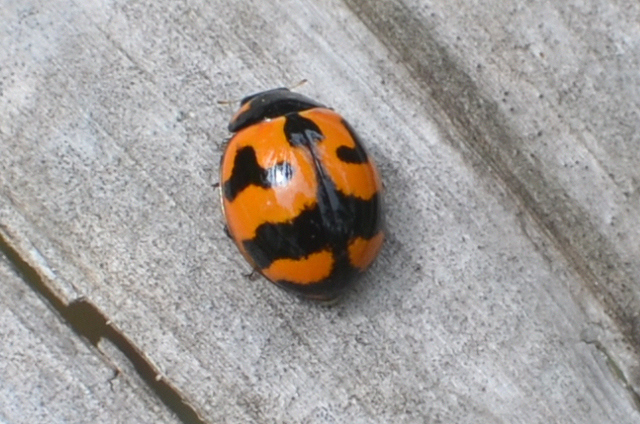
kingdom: Animalia
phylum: Arthropoda
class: Insecta
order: Coleoptera
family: Coccinellidae
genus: Coccinella
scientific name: Coccinella transversalis
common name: Transverse lady beetle
